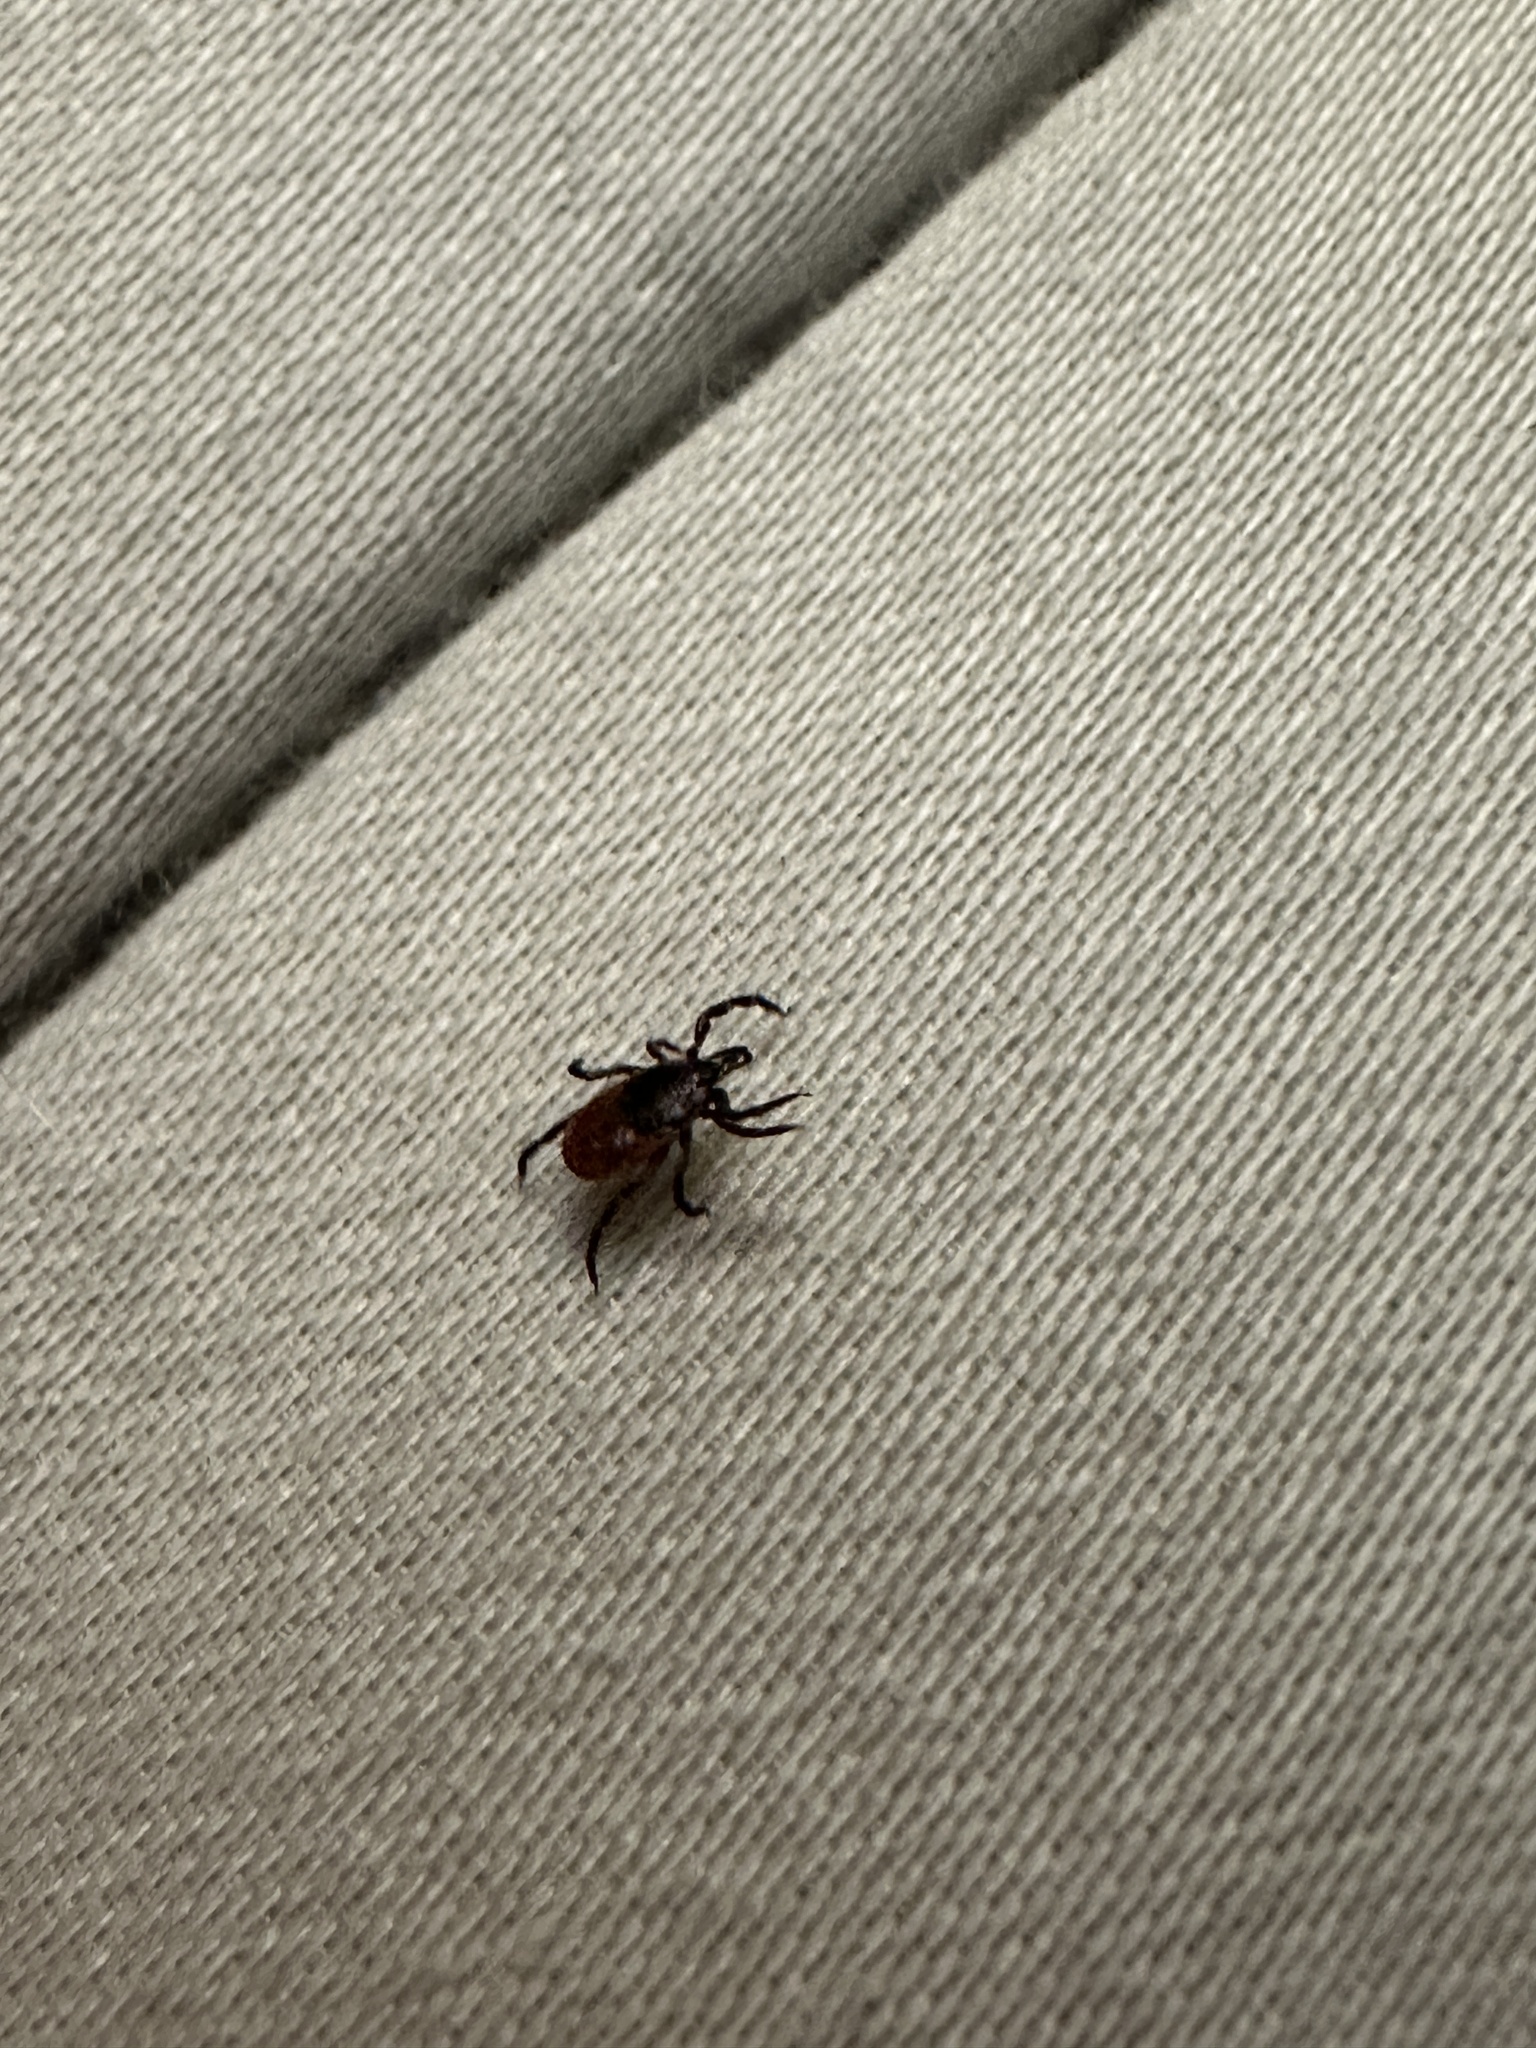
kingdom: Animalia
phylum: Arthropoda
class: Arachnida
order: Ixodida
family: Ixodidae
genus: Ixodes
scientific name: Ixodes scapularis
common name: Black legged tick
